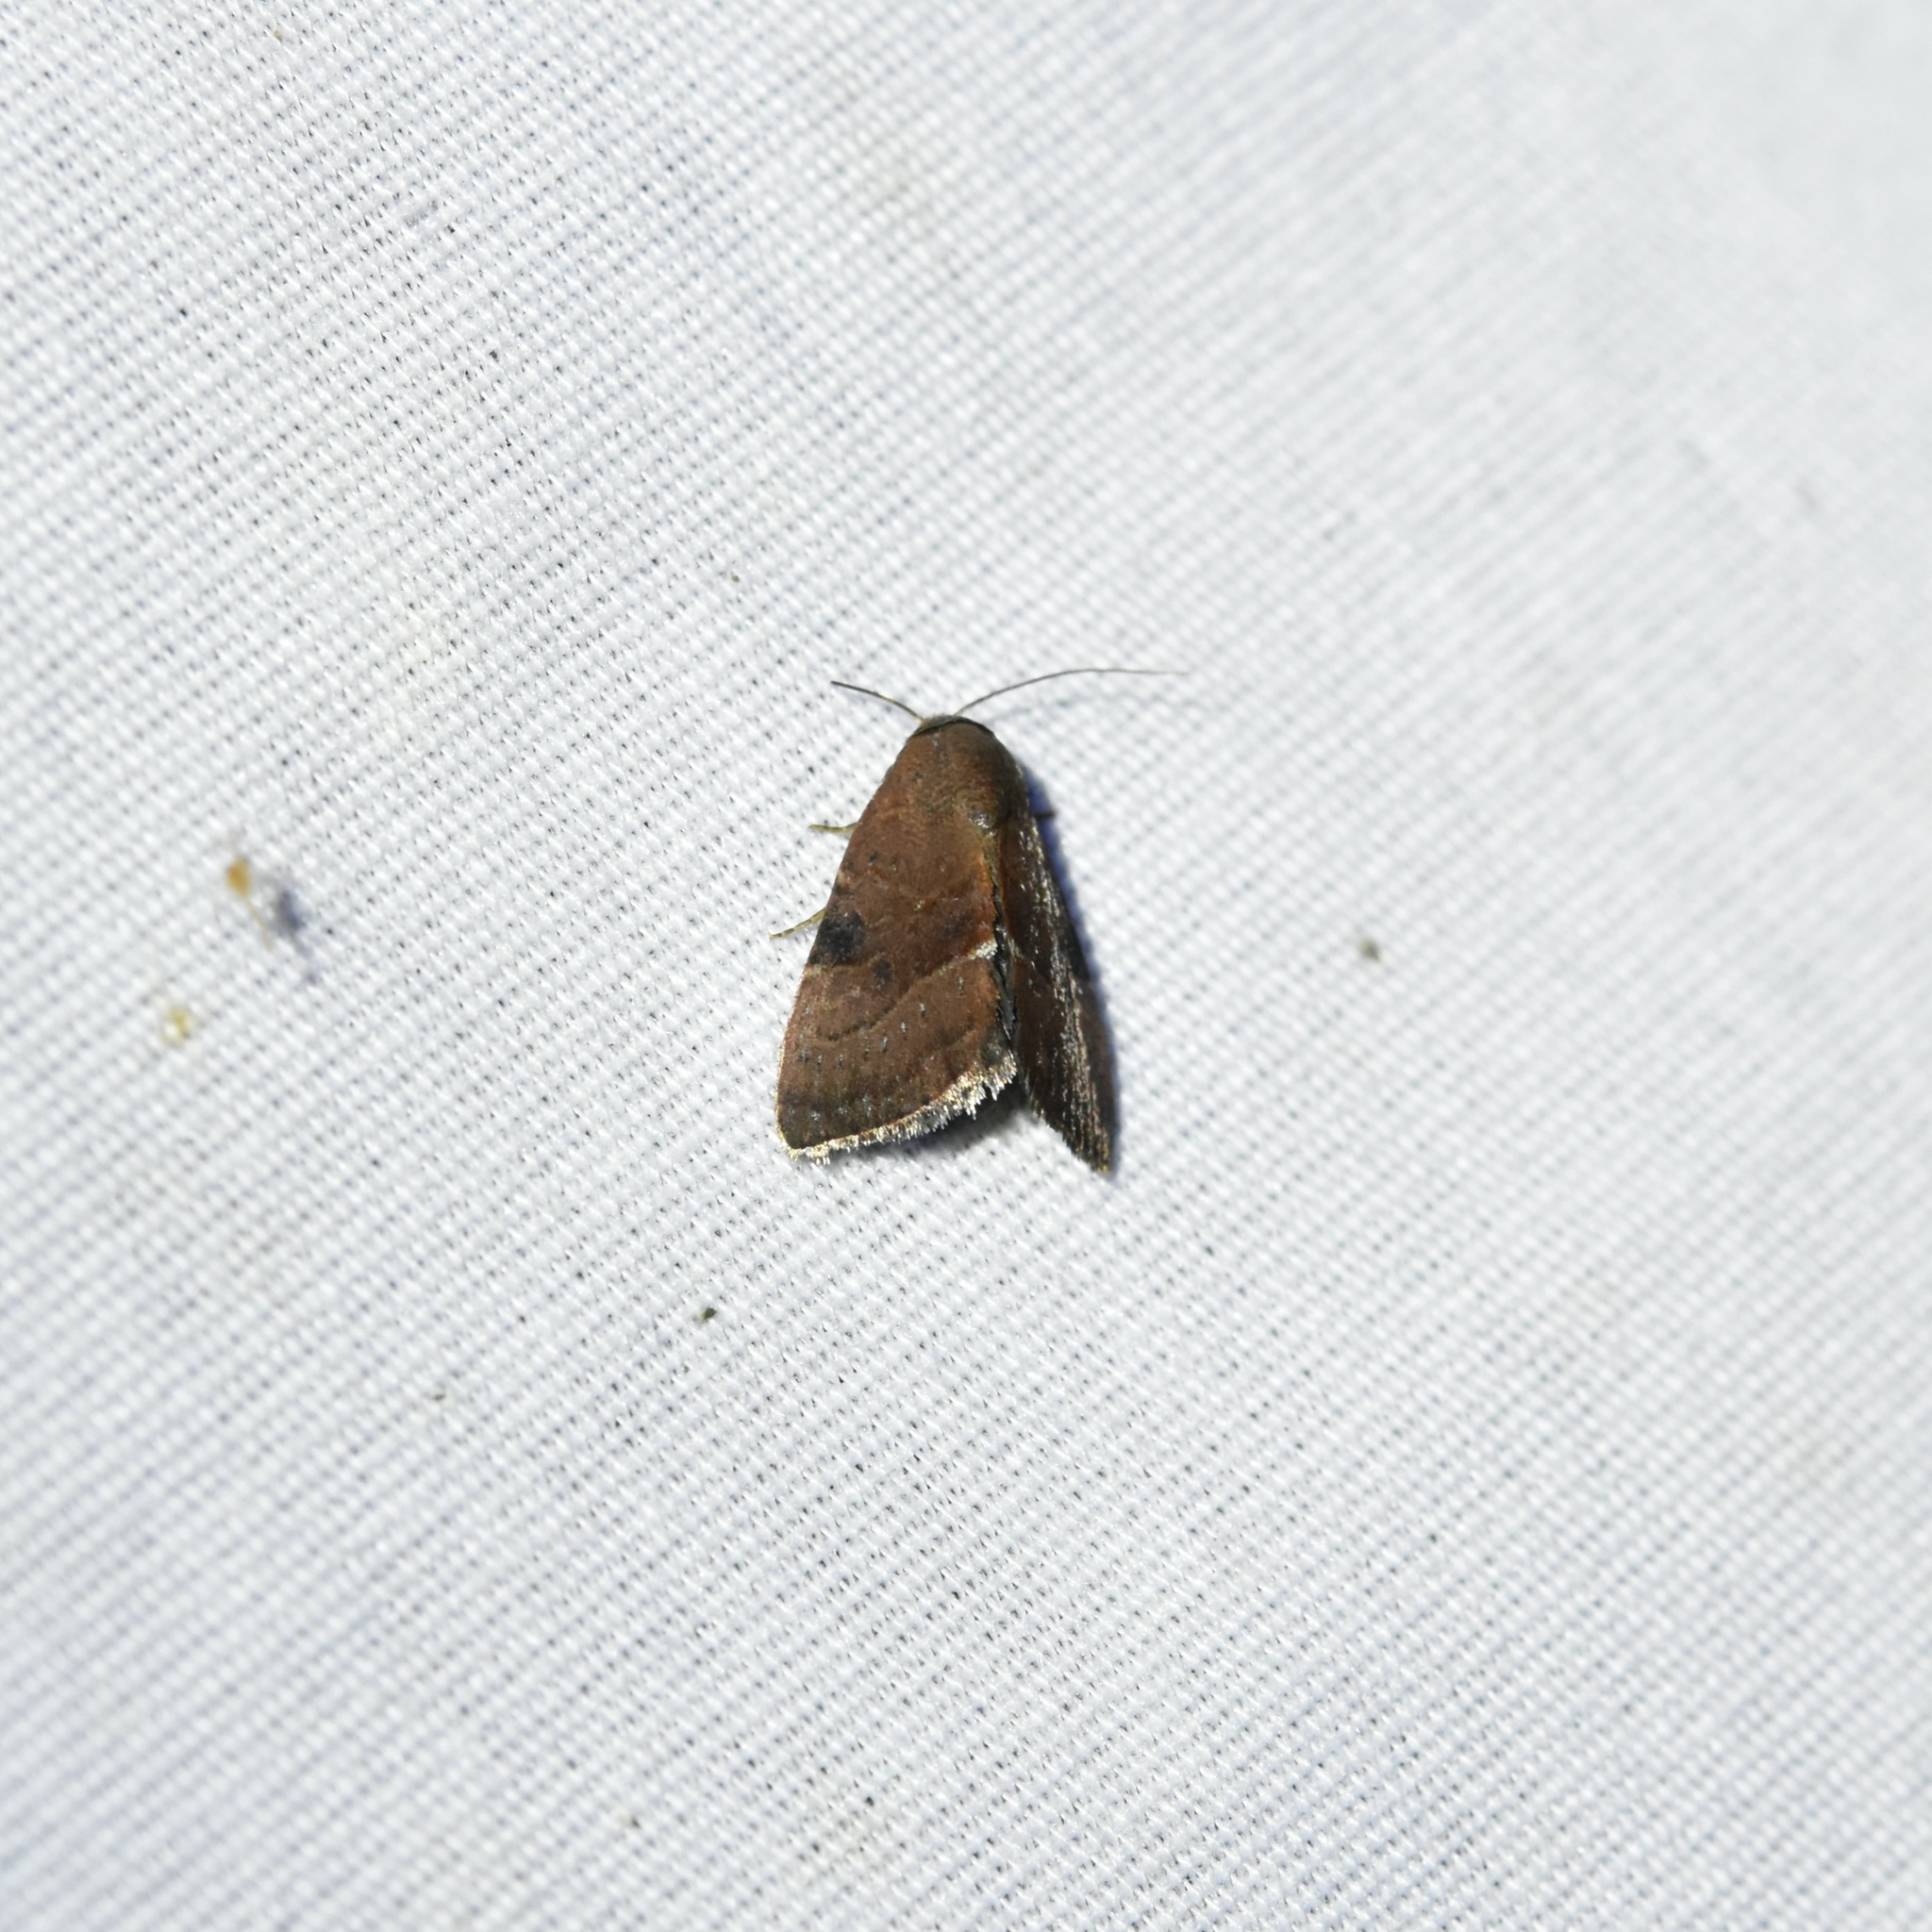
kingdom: Animalia
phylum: Arthropoda
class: Insecta
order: Lepidoptera
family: Noctuidae
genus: Galgula
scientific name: Galgula partita
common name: Wedgeling
